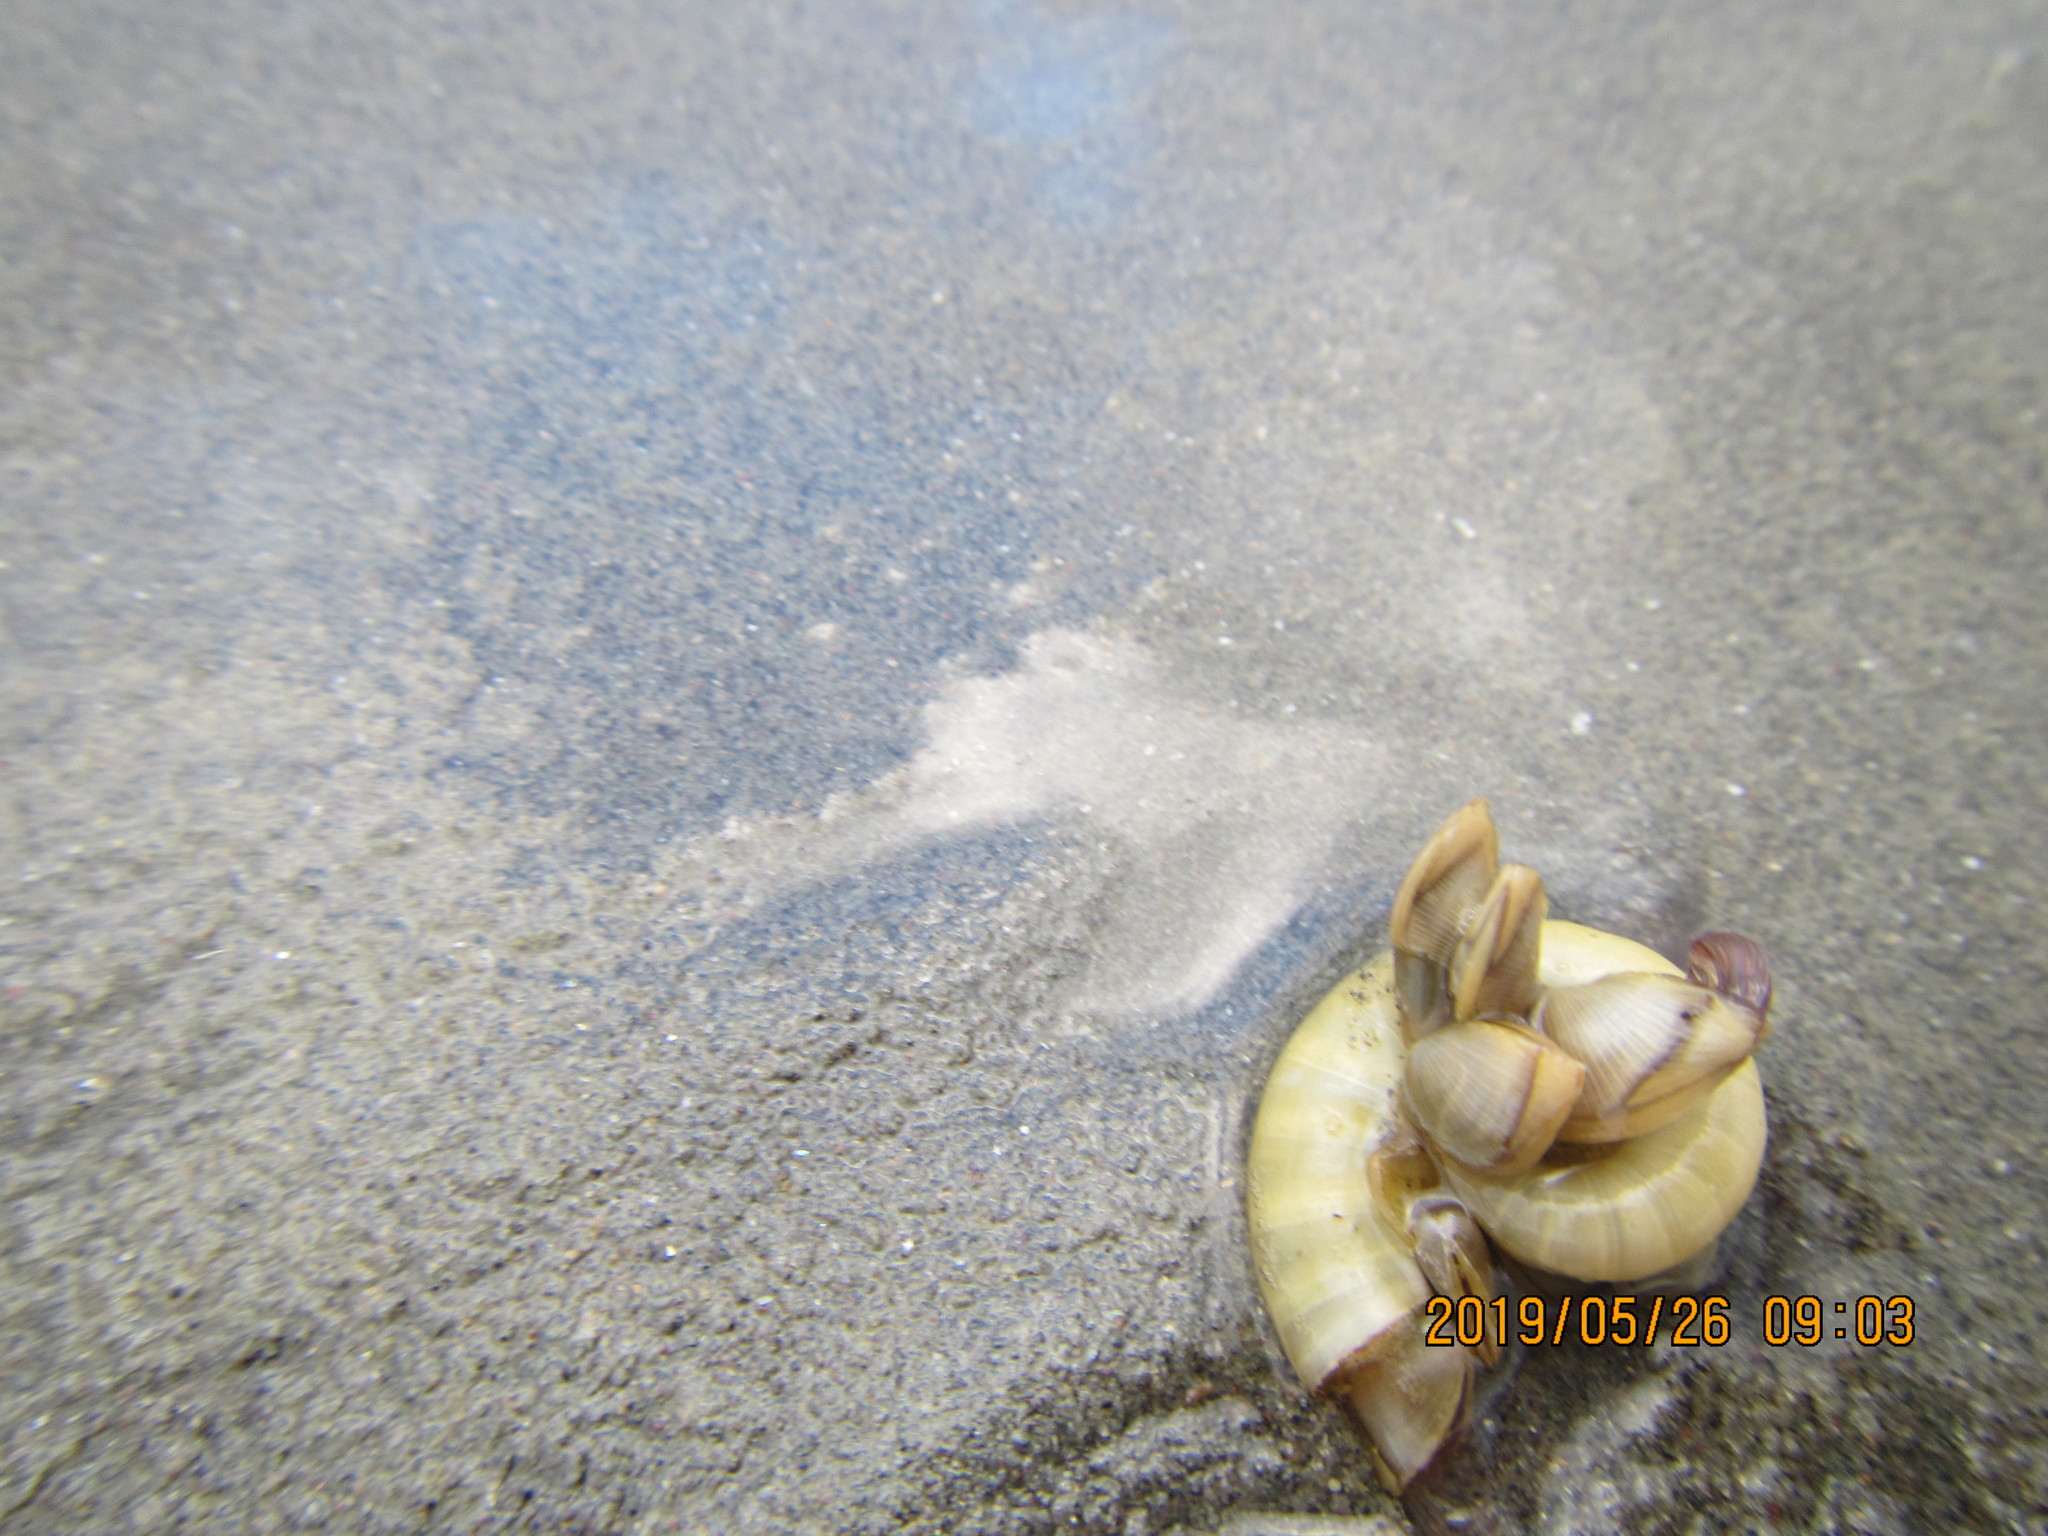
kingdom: Animalia
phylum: Arthropoda
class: Maxillopoda
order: Pedunculata
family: Lepadidae
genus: Lepas
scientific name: Lepas pectinata
